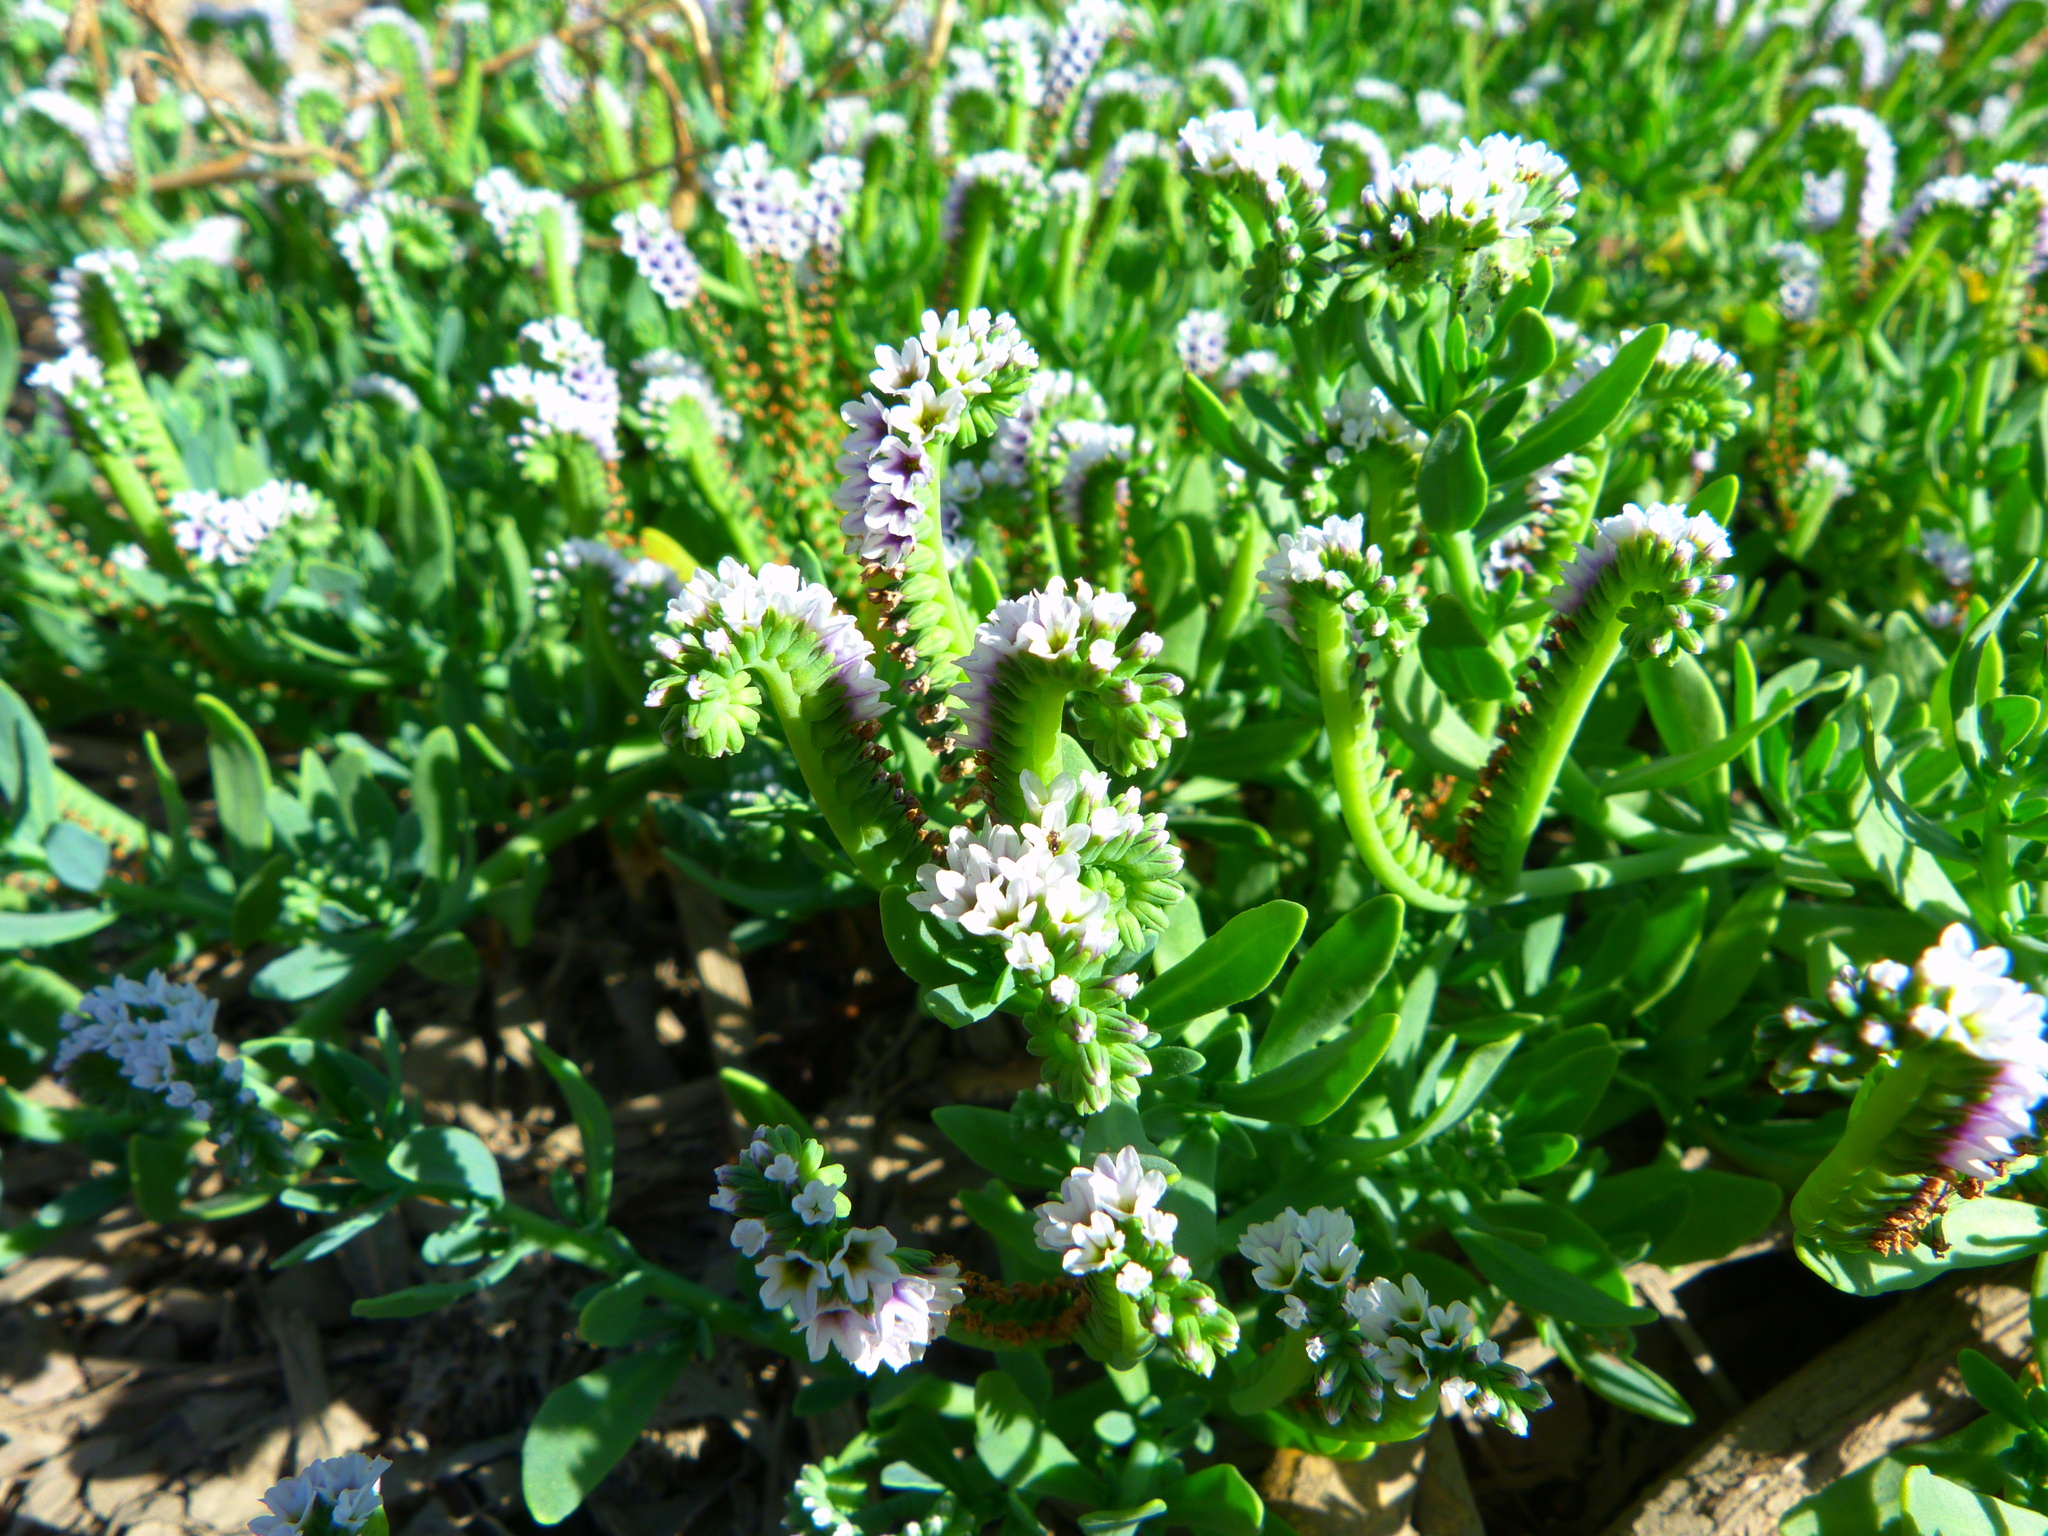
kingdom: Plantae
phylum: Tracheophyta
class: Magnoliopsida
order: Boraginales
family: Heliotropiaceae
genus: Heliotropium
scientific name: Heliotropium curassavicum
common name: Seaside heliotrope
